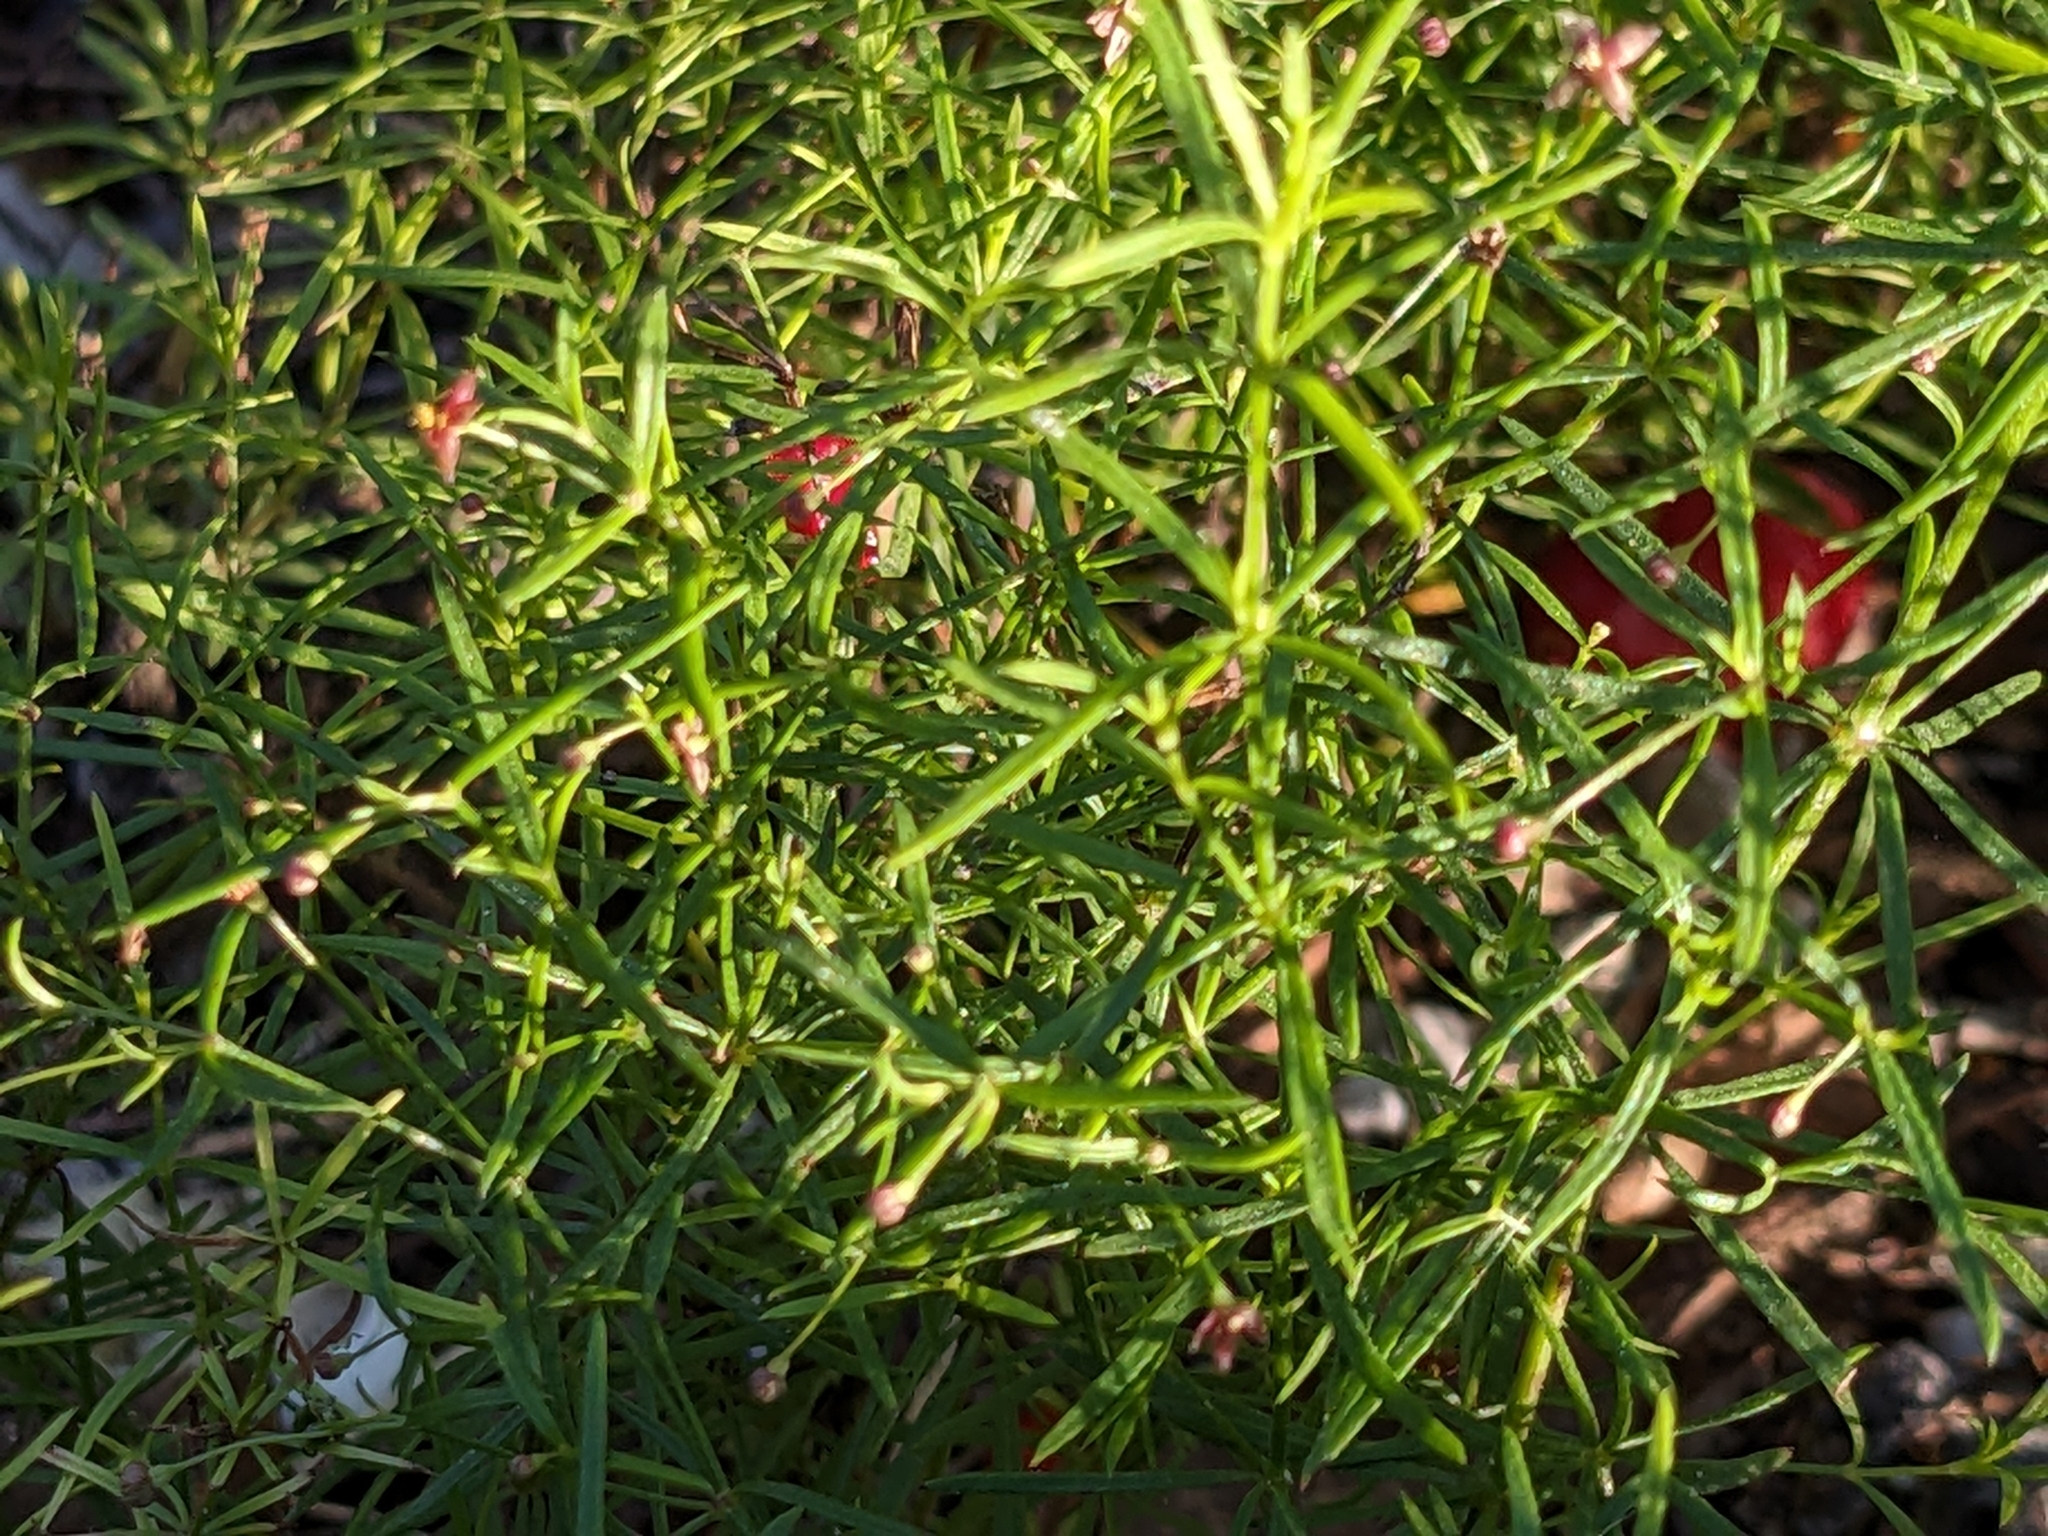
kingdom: Plantae
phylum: Tracheophyta
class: Magnoliopsida
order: Gentianales
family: Rubiaceae
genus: Thliphthisa
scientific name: Thliphthisa purpurea
